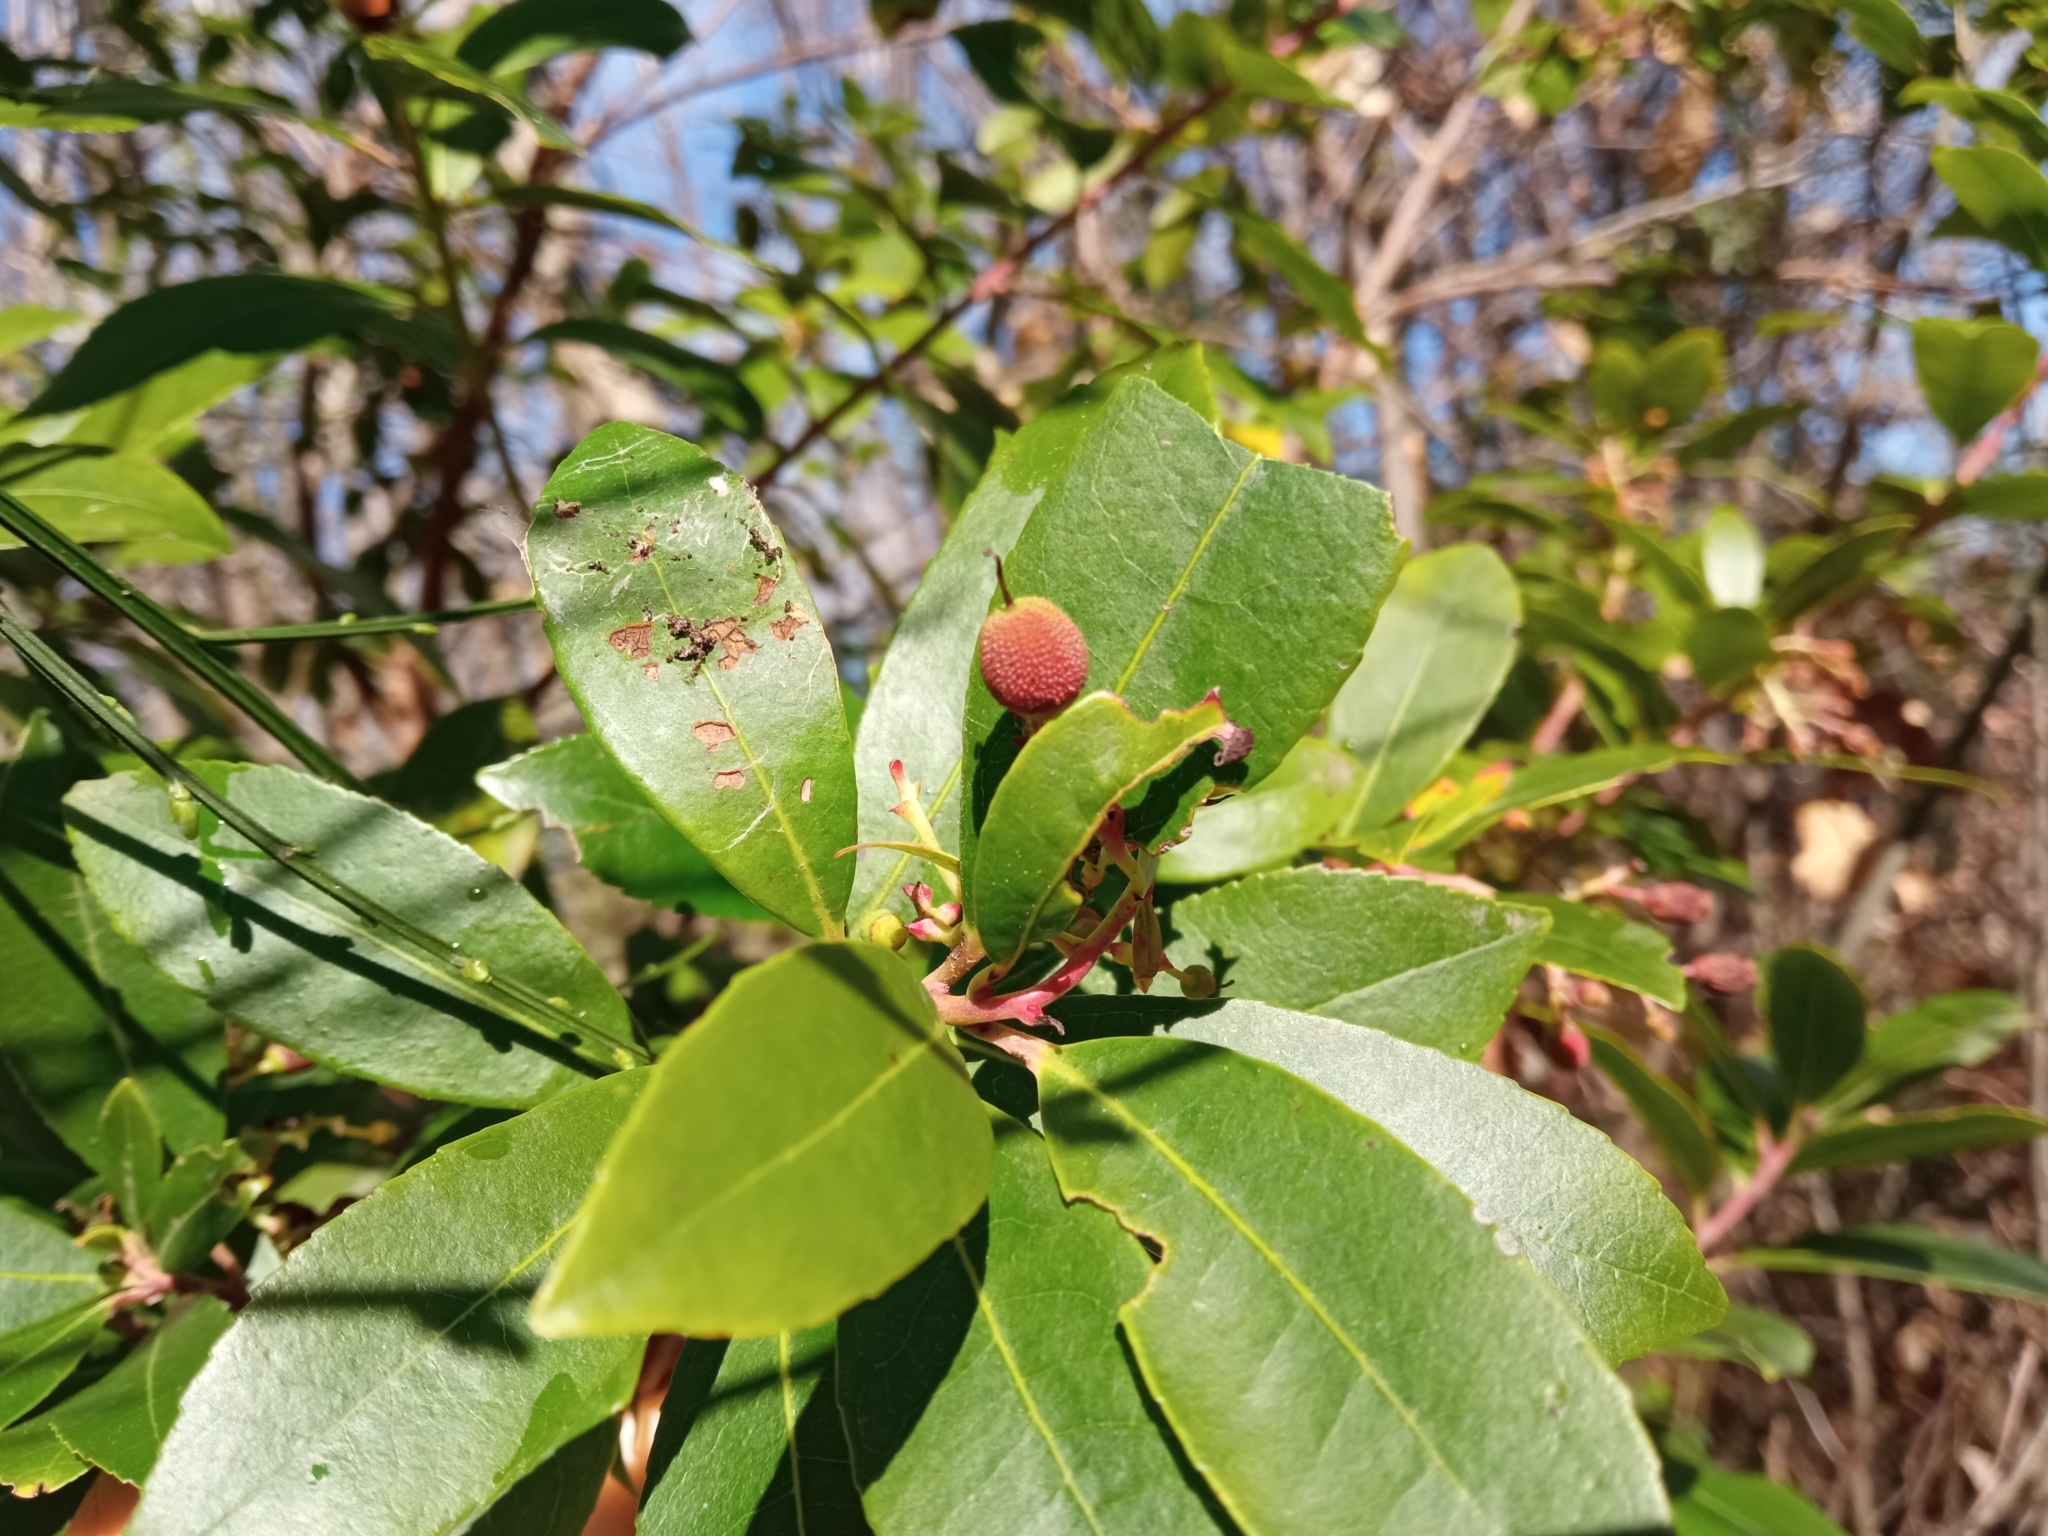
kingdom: Plantae
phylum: Tracheophyta
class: Magnoliopsida
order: Ericales
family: Ericaceae
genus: Arbutus
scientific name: Arbutus unedo
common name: Strawberry-tree
